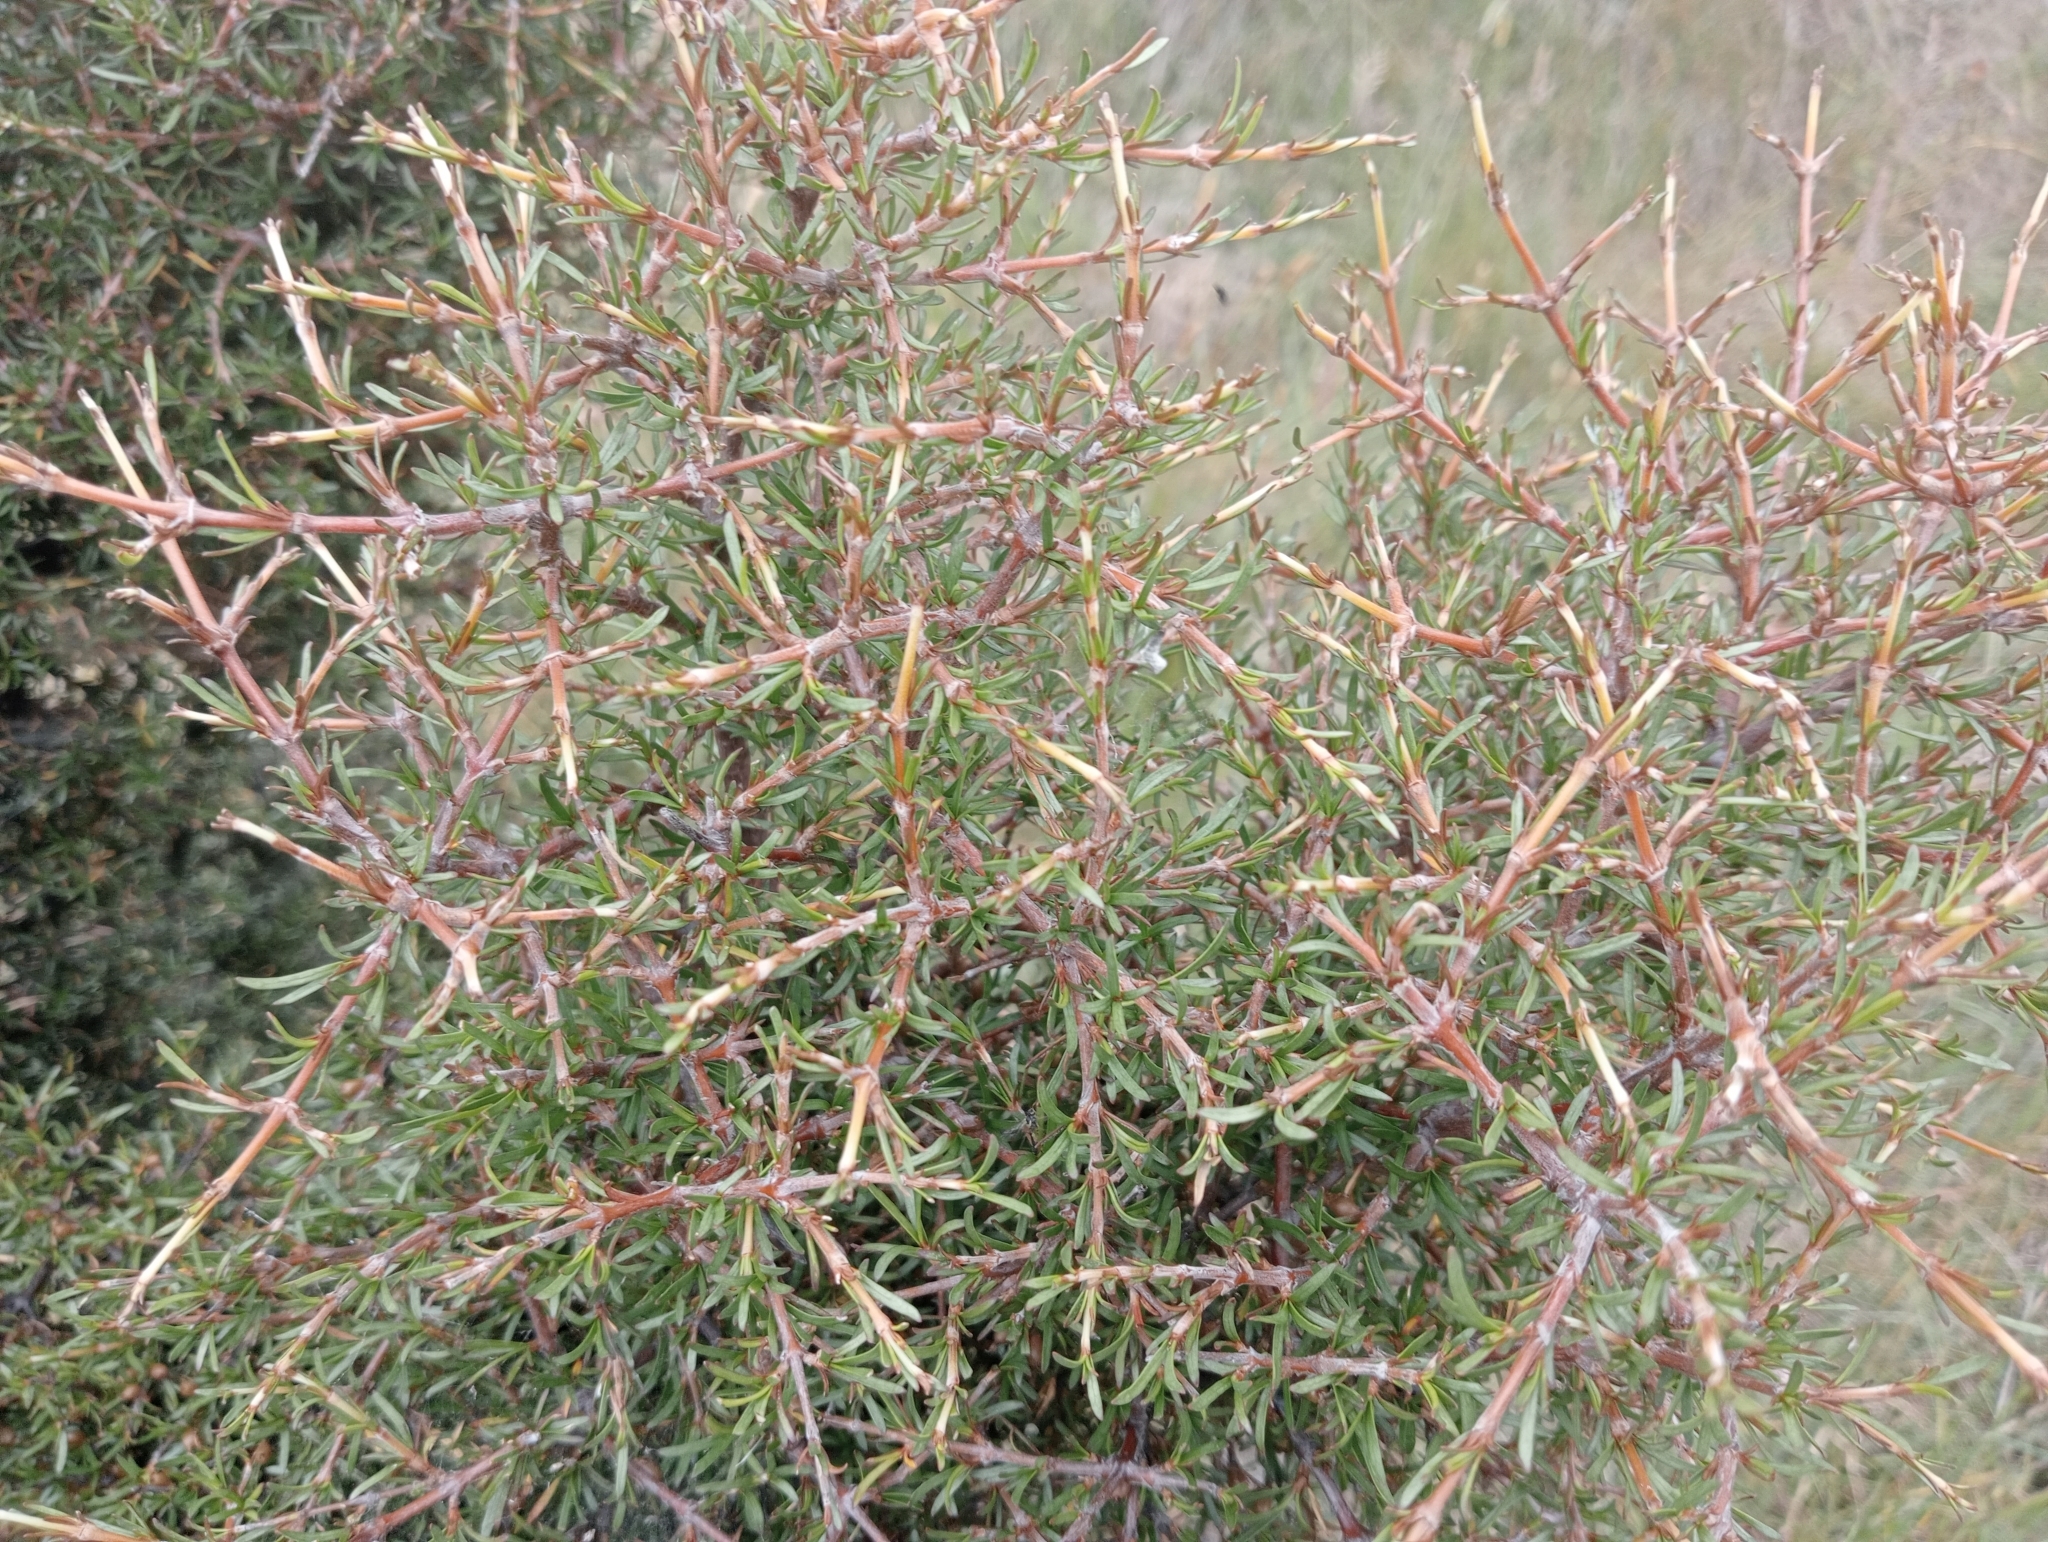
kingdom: Plantae
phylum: Tracheophyta
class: Magnoliopsida
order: Gentianales
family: Rubiaceae
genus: Coprosma
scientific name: Coprosma rugosa
